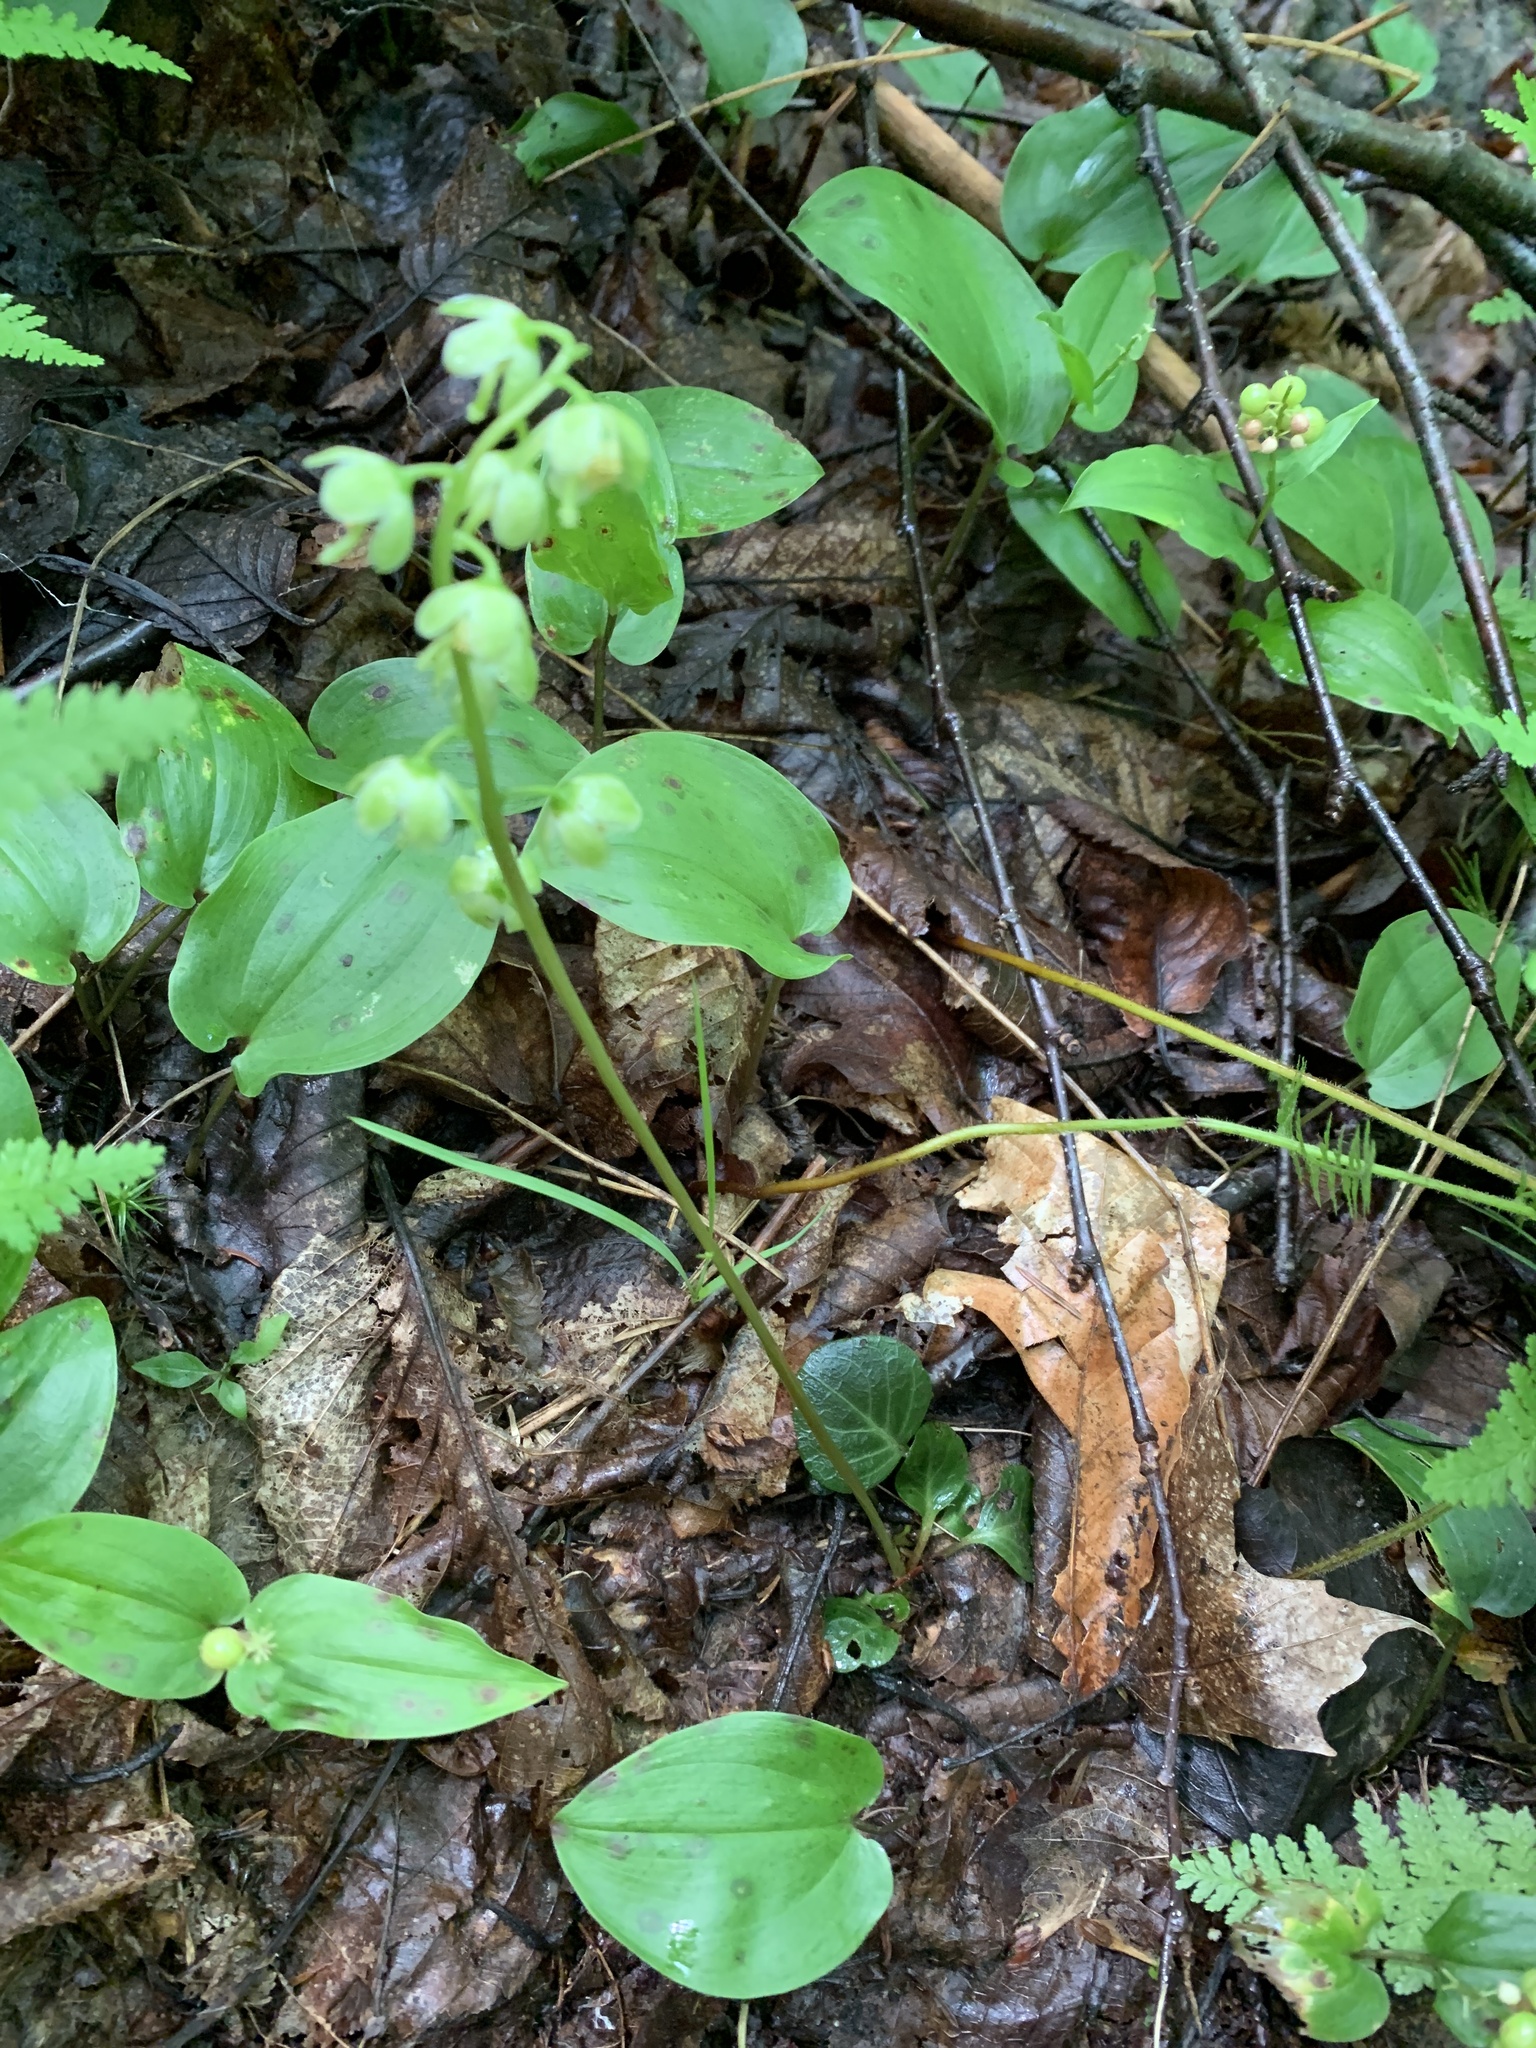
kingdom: Plantae
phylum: Tracheophyta
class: Magnoliopsida
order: Ericales
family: Ericaceae
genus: Pyrola
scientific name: Pyrola chlorantha
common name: Green wintergreen
